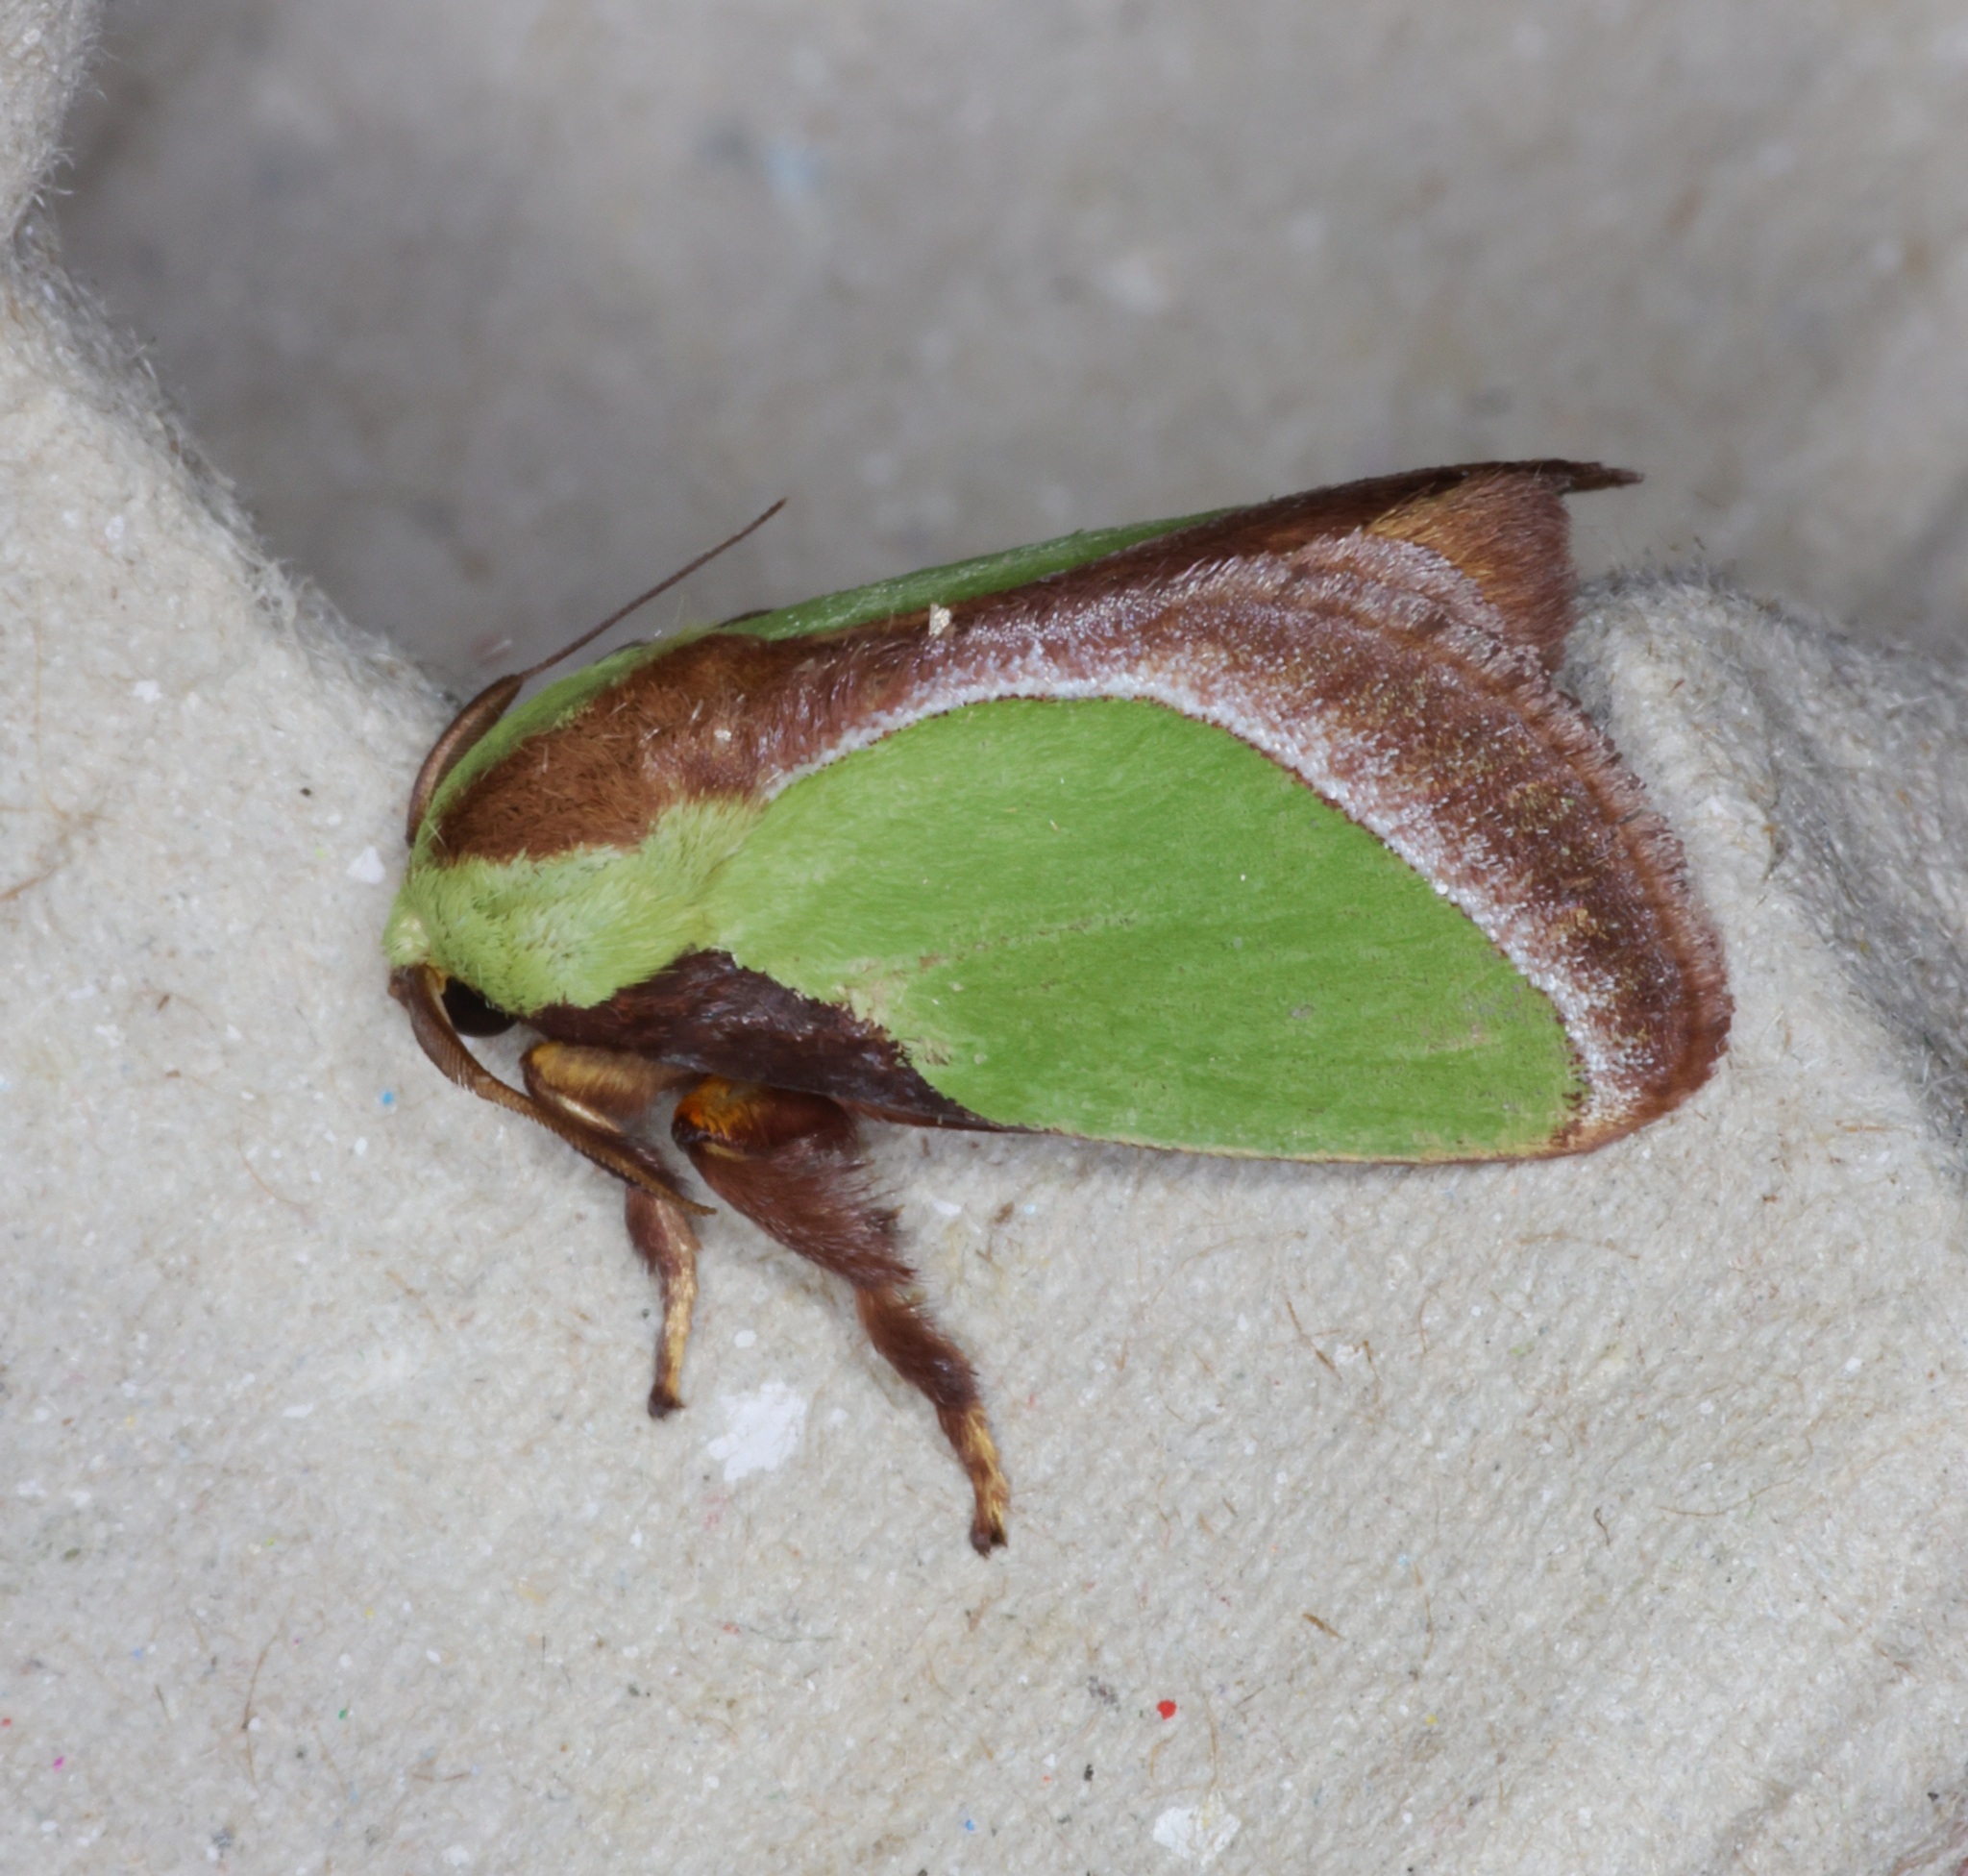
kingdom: Animalia
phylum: Arthropoda
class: Insecta
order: Lepidoptera
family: Limacodidae
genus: Melinaria
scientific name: Melinaria campagnei
